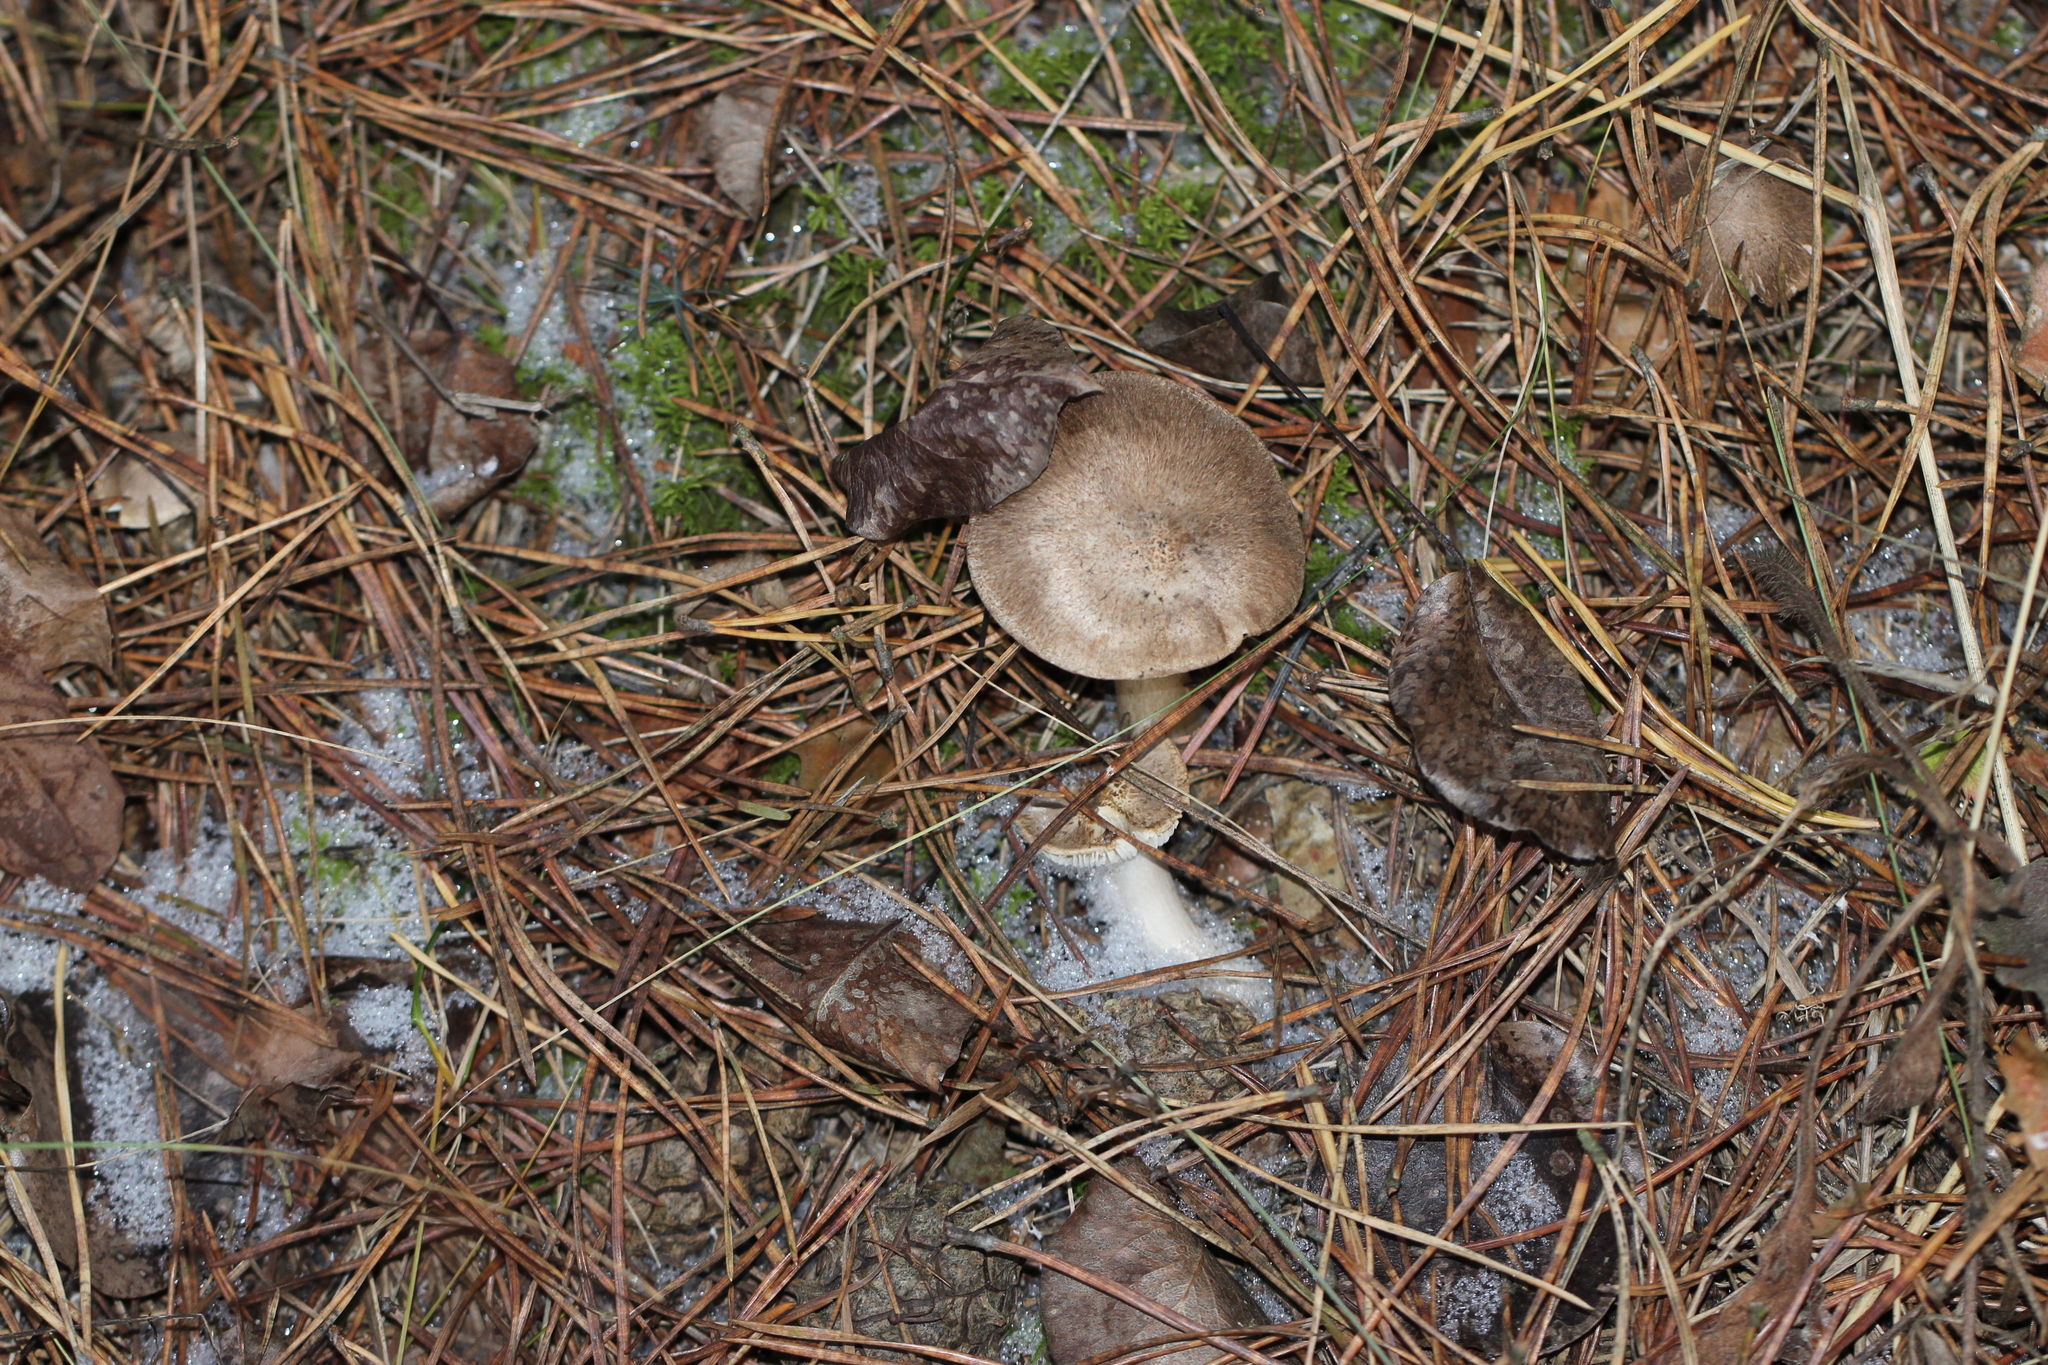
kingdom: Fungi
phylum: Basidiomycota
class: Agaricomycetes
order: Agaricales
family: Tricholomataceae
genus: Tricholoma
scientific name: Tricholoma terreum
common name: Grey knight
